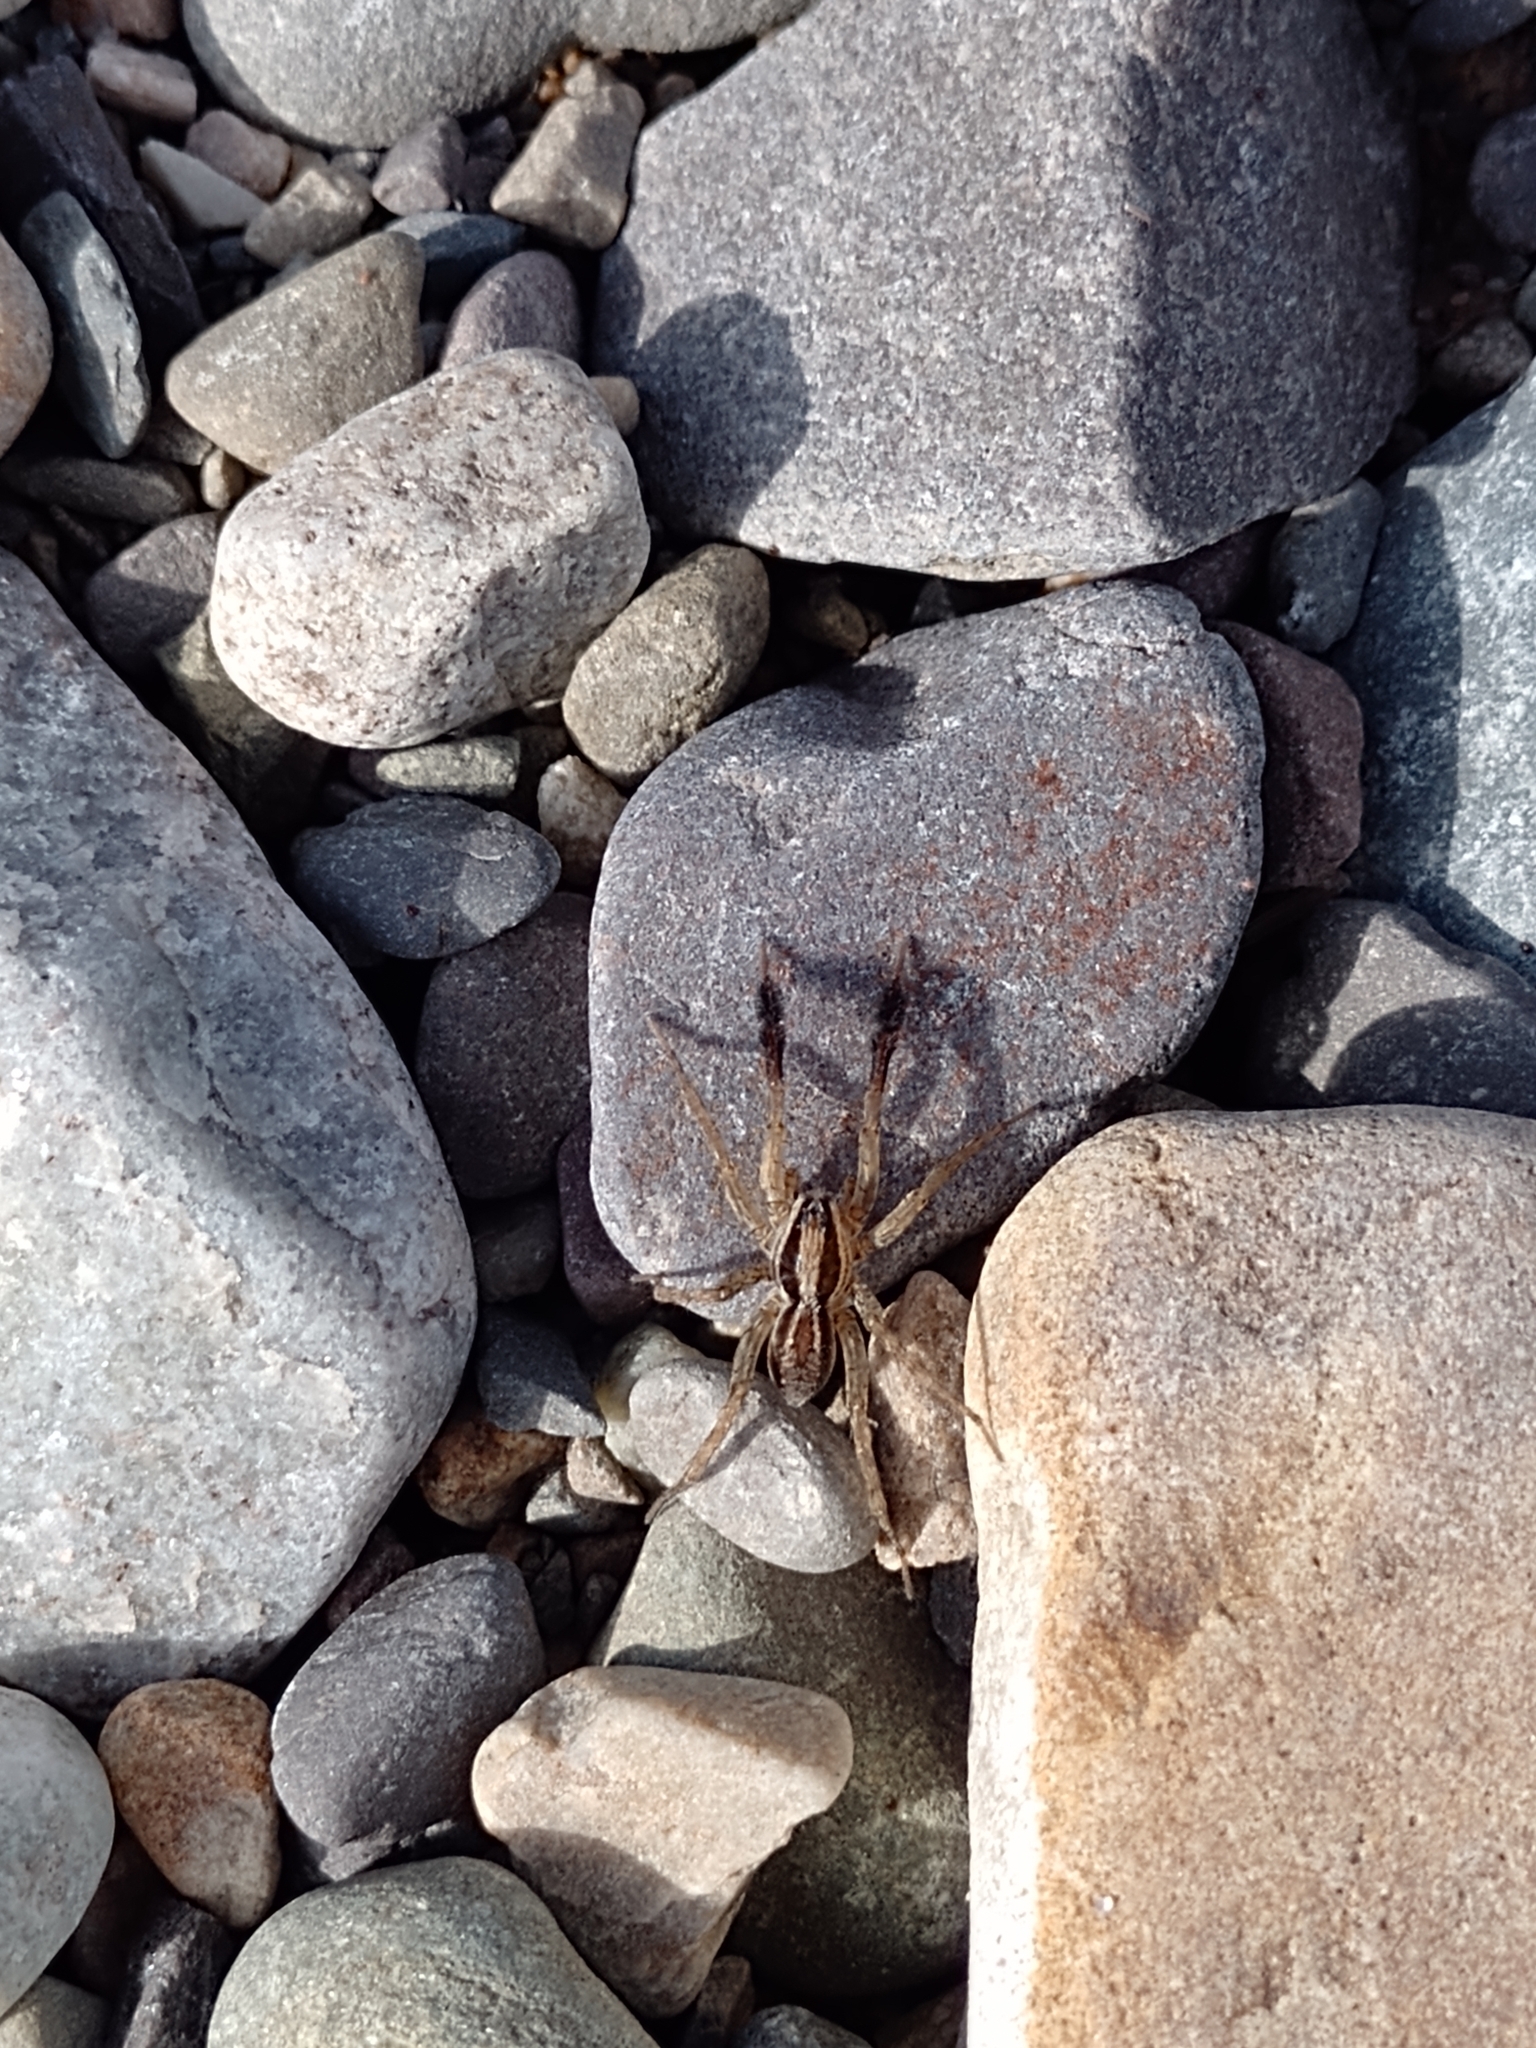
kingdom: Animalia
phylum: Arthropoda
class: Arachnida
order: Araneae
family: Lycosidae
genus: Pardosa
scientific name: Pardosa plumipedata
